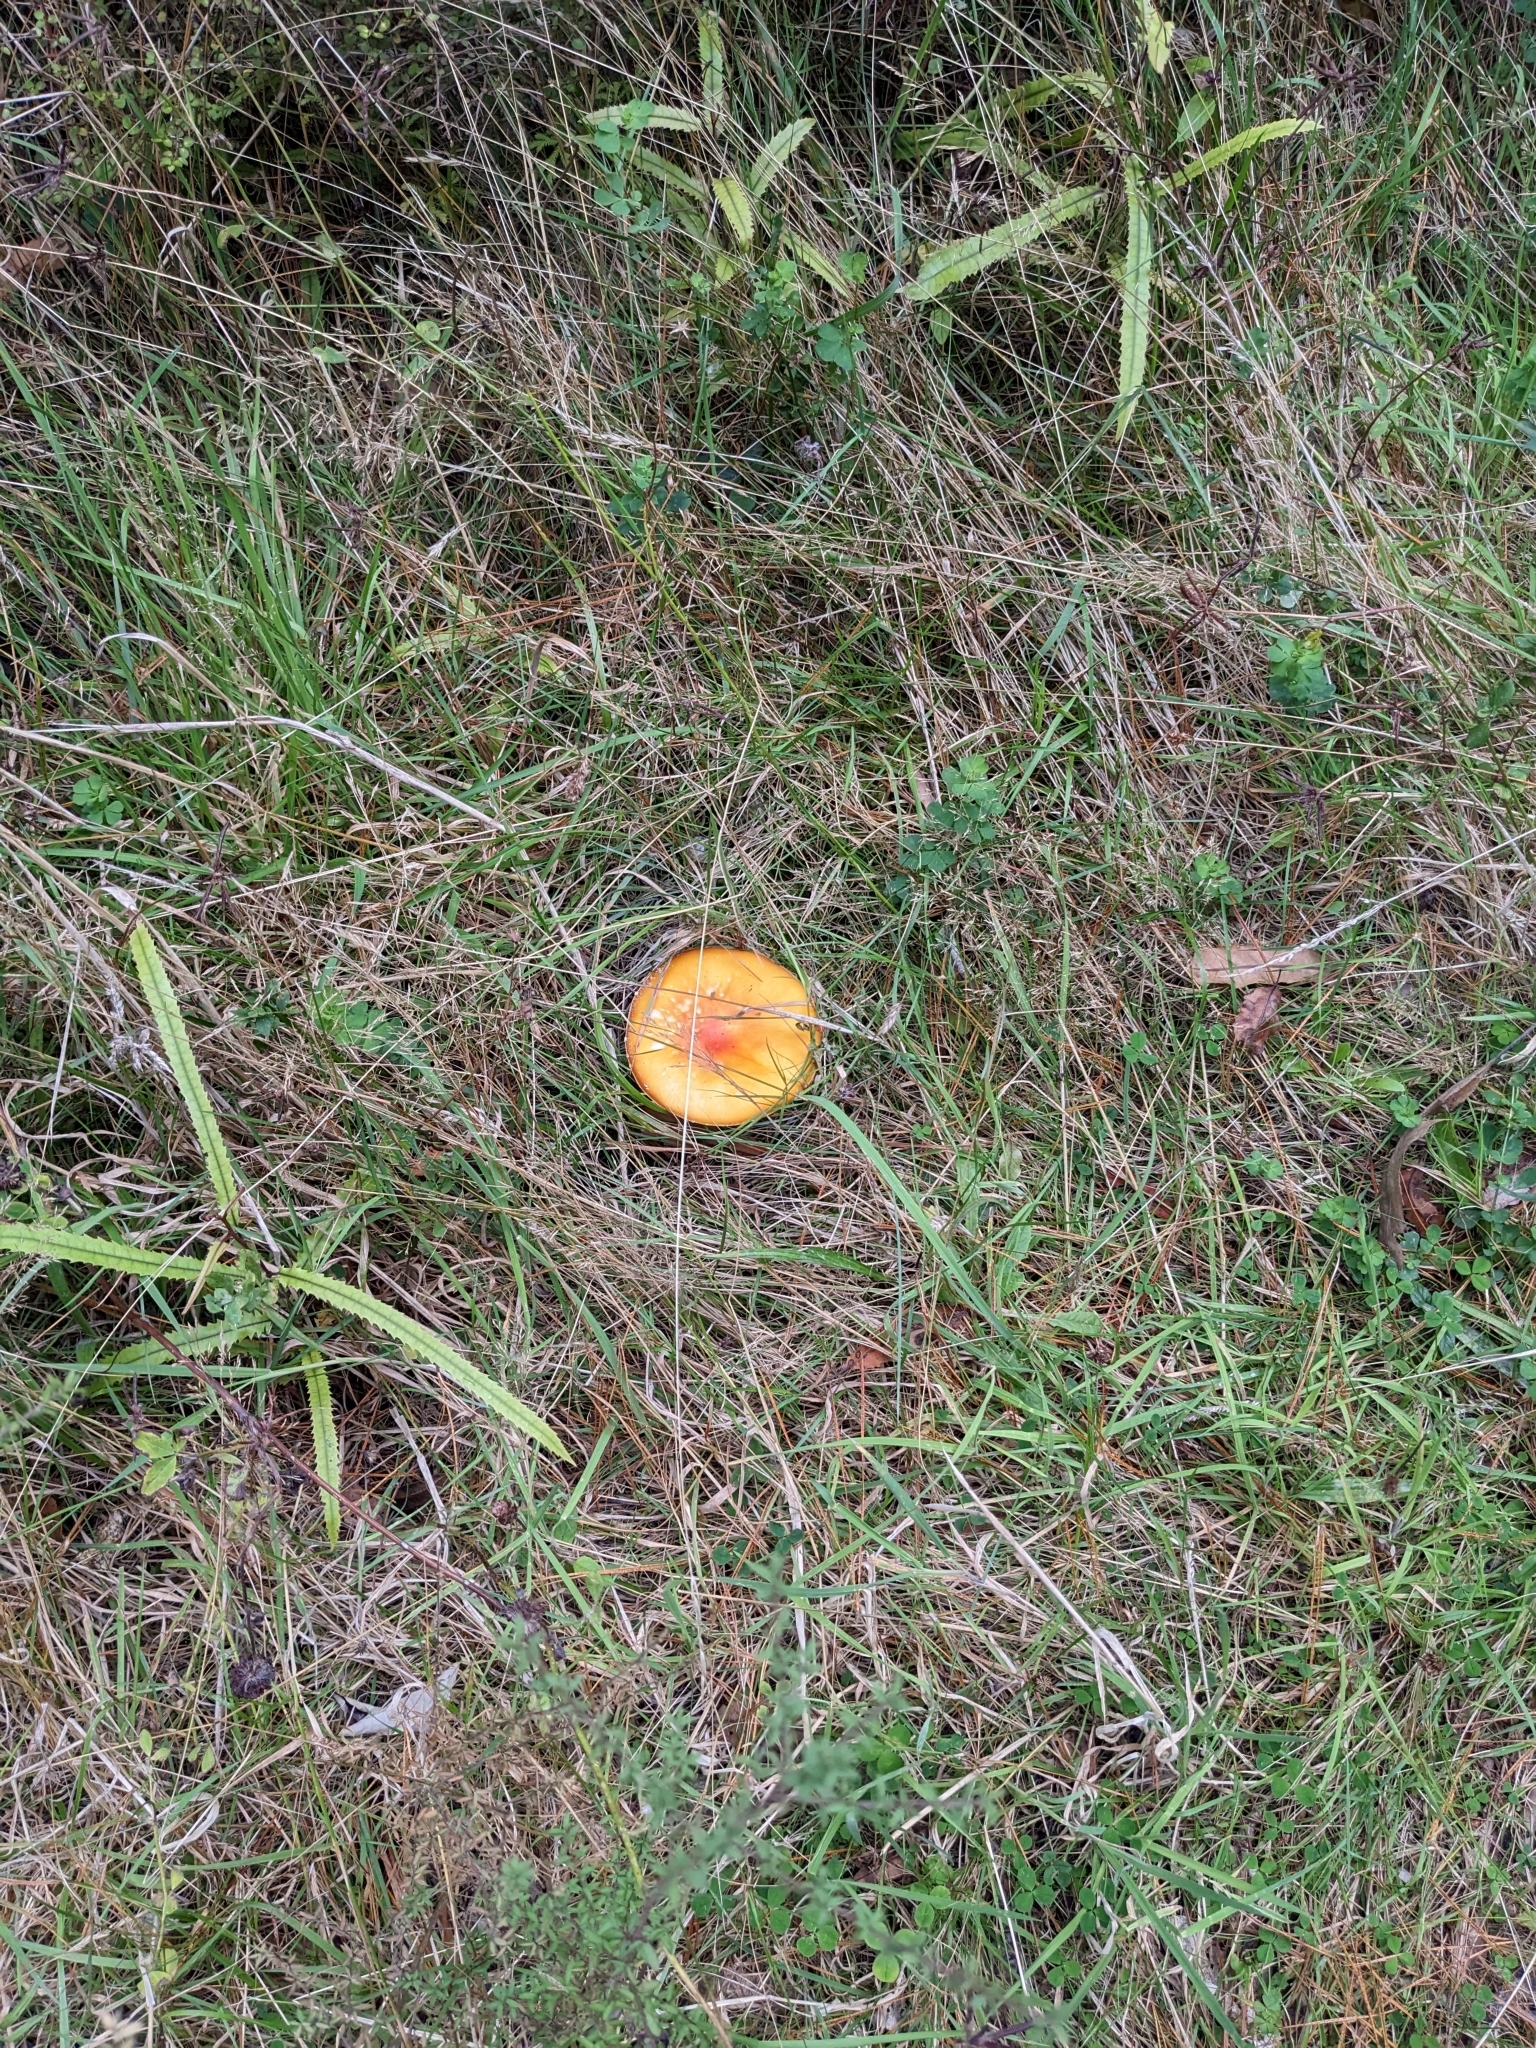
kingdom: Fungi
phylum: Basidiomycota
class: Agaricomycetes
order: Agaricales
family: Amanitaceae
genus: Amanita
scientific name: Amanita muscaria
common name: Fly agaric
